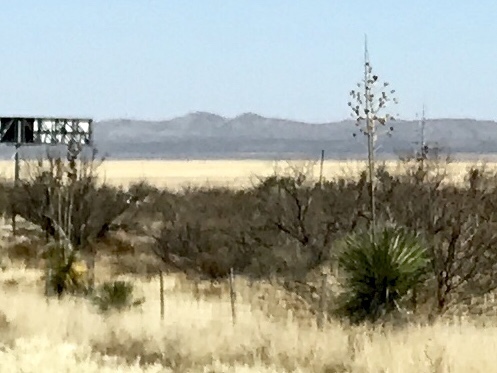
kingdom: Plantae
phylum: Tracheophyta
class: Liliopsida
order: Asparagales
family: Asparagaceae
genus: Yucca
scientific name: Yucca elata
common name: Palmella
